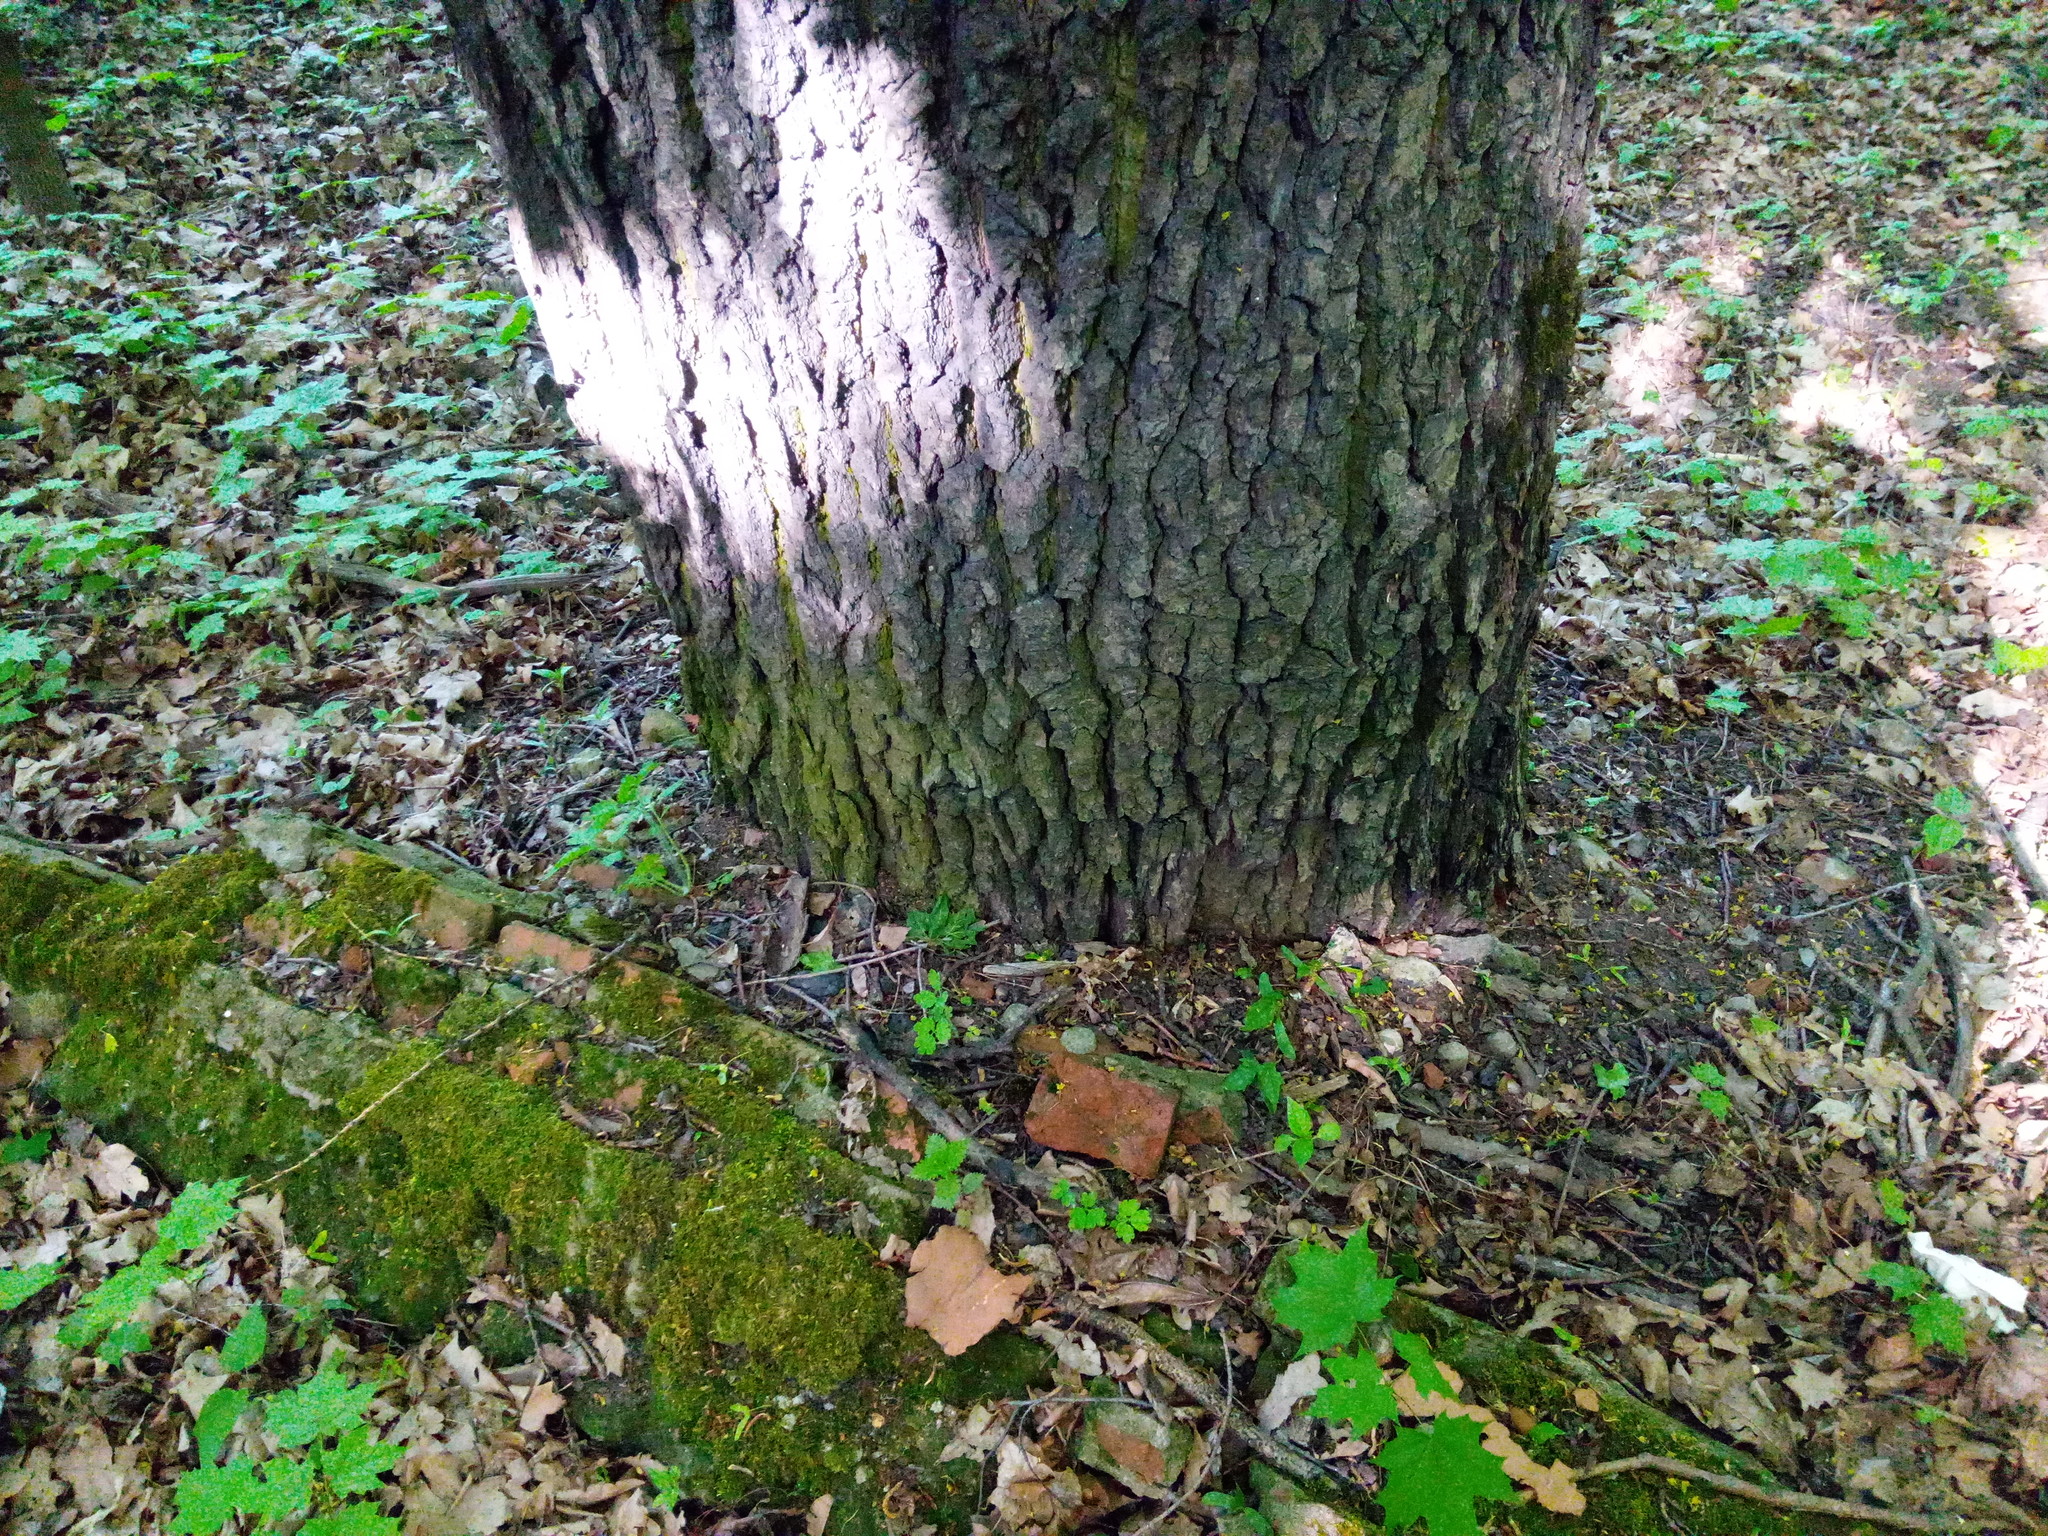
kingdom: Plantae
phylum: Tracheophyta
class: Magnoliopsida
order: Fagales
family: Fagaceae
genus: Quercus
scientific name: Quercus robur
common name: Pedunculate oak
